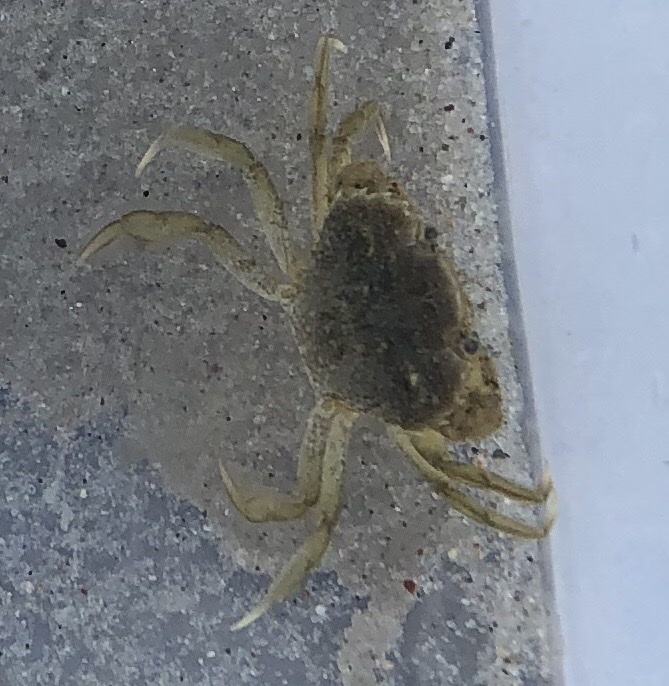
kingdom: Animalia
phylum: Arthropoda
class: Malacostraca
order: Decapoda
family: Carcinidae
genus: Carcinus
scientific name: Carcinus maenas
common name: European green crab
